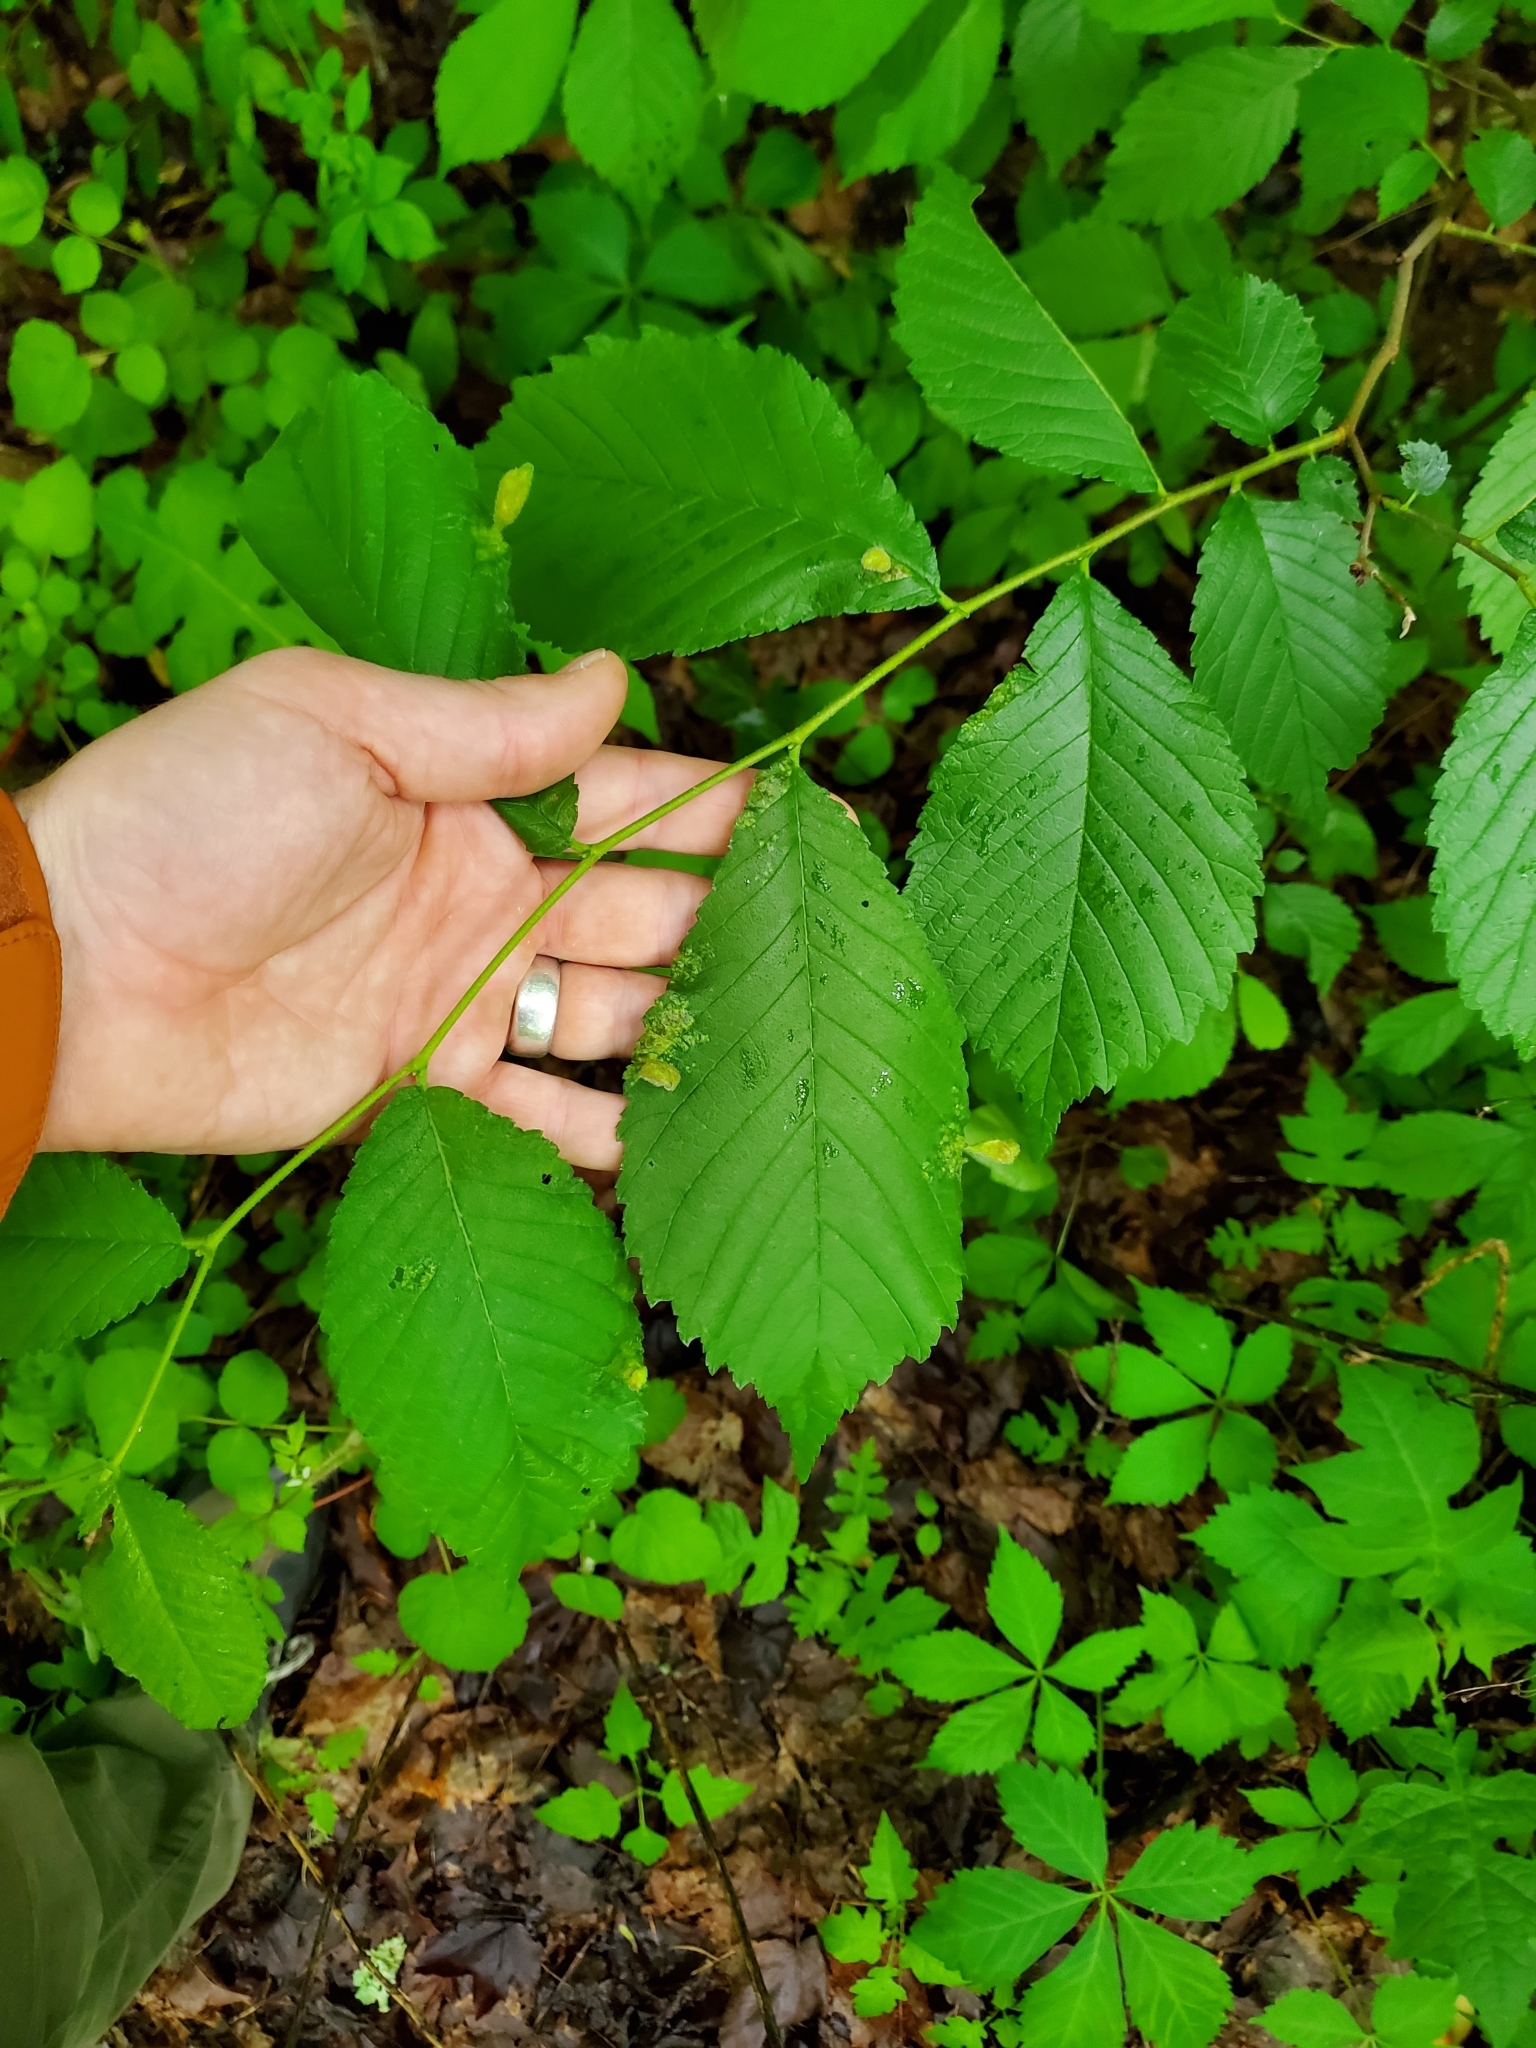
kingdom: Animalia
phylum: Arthropoda
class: Insecta
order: Hemiptera
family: Aphididae
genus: Tetraneura
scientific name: Tetraneura nigriabdominalis
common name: Aphid
